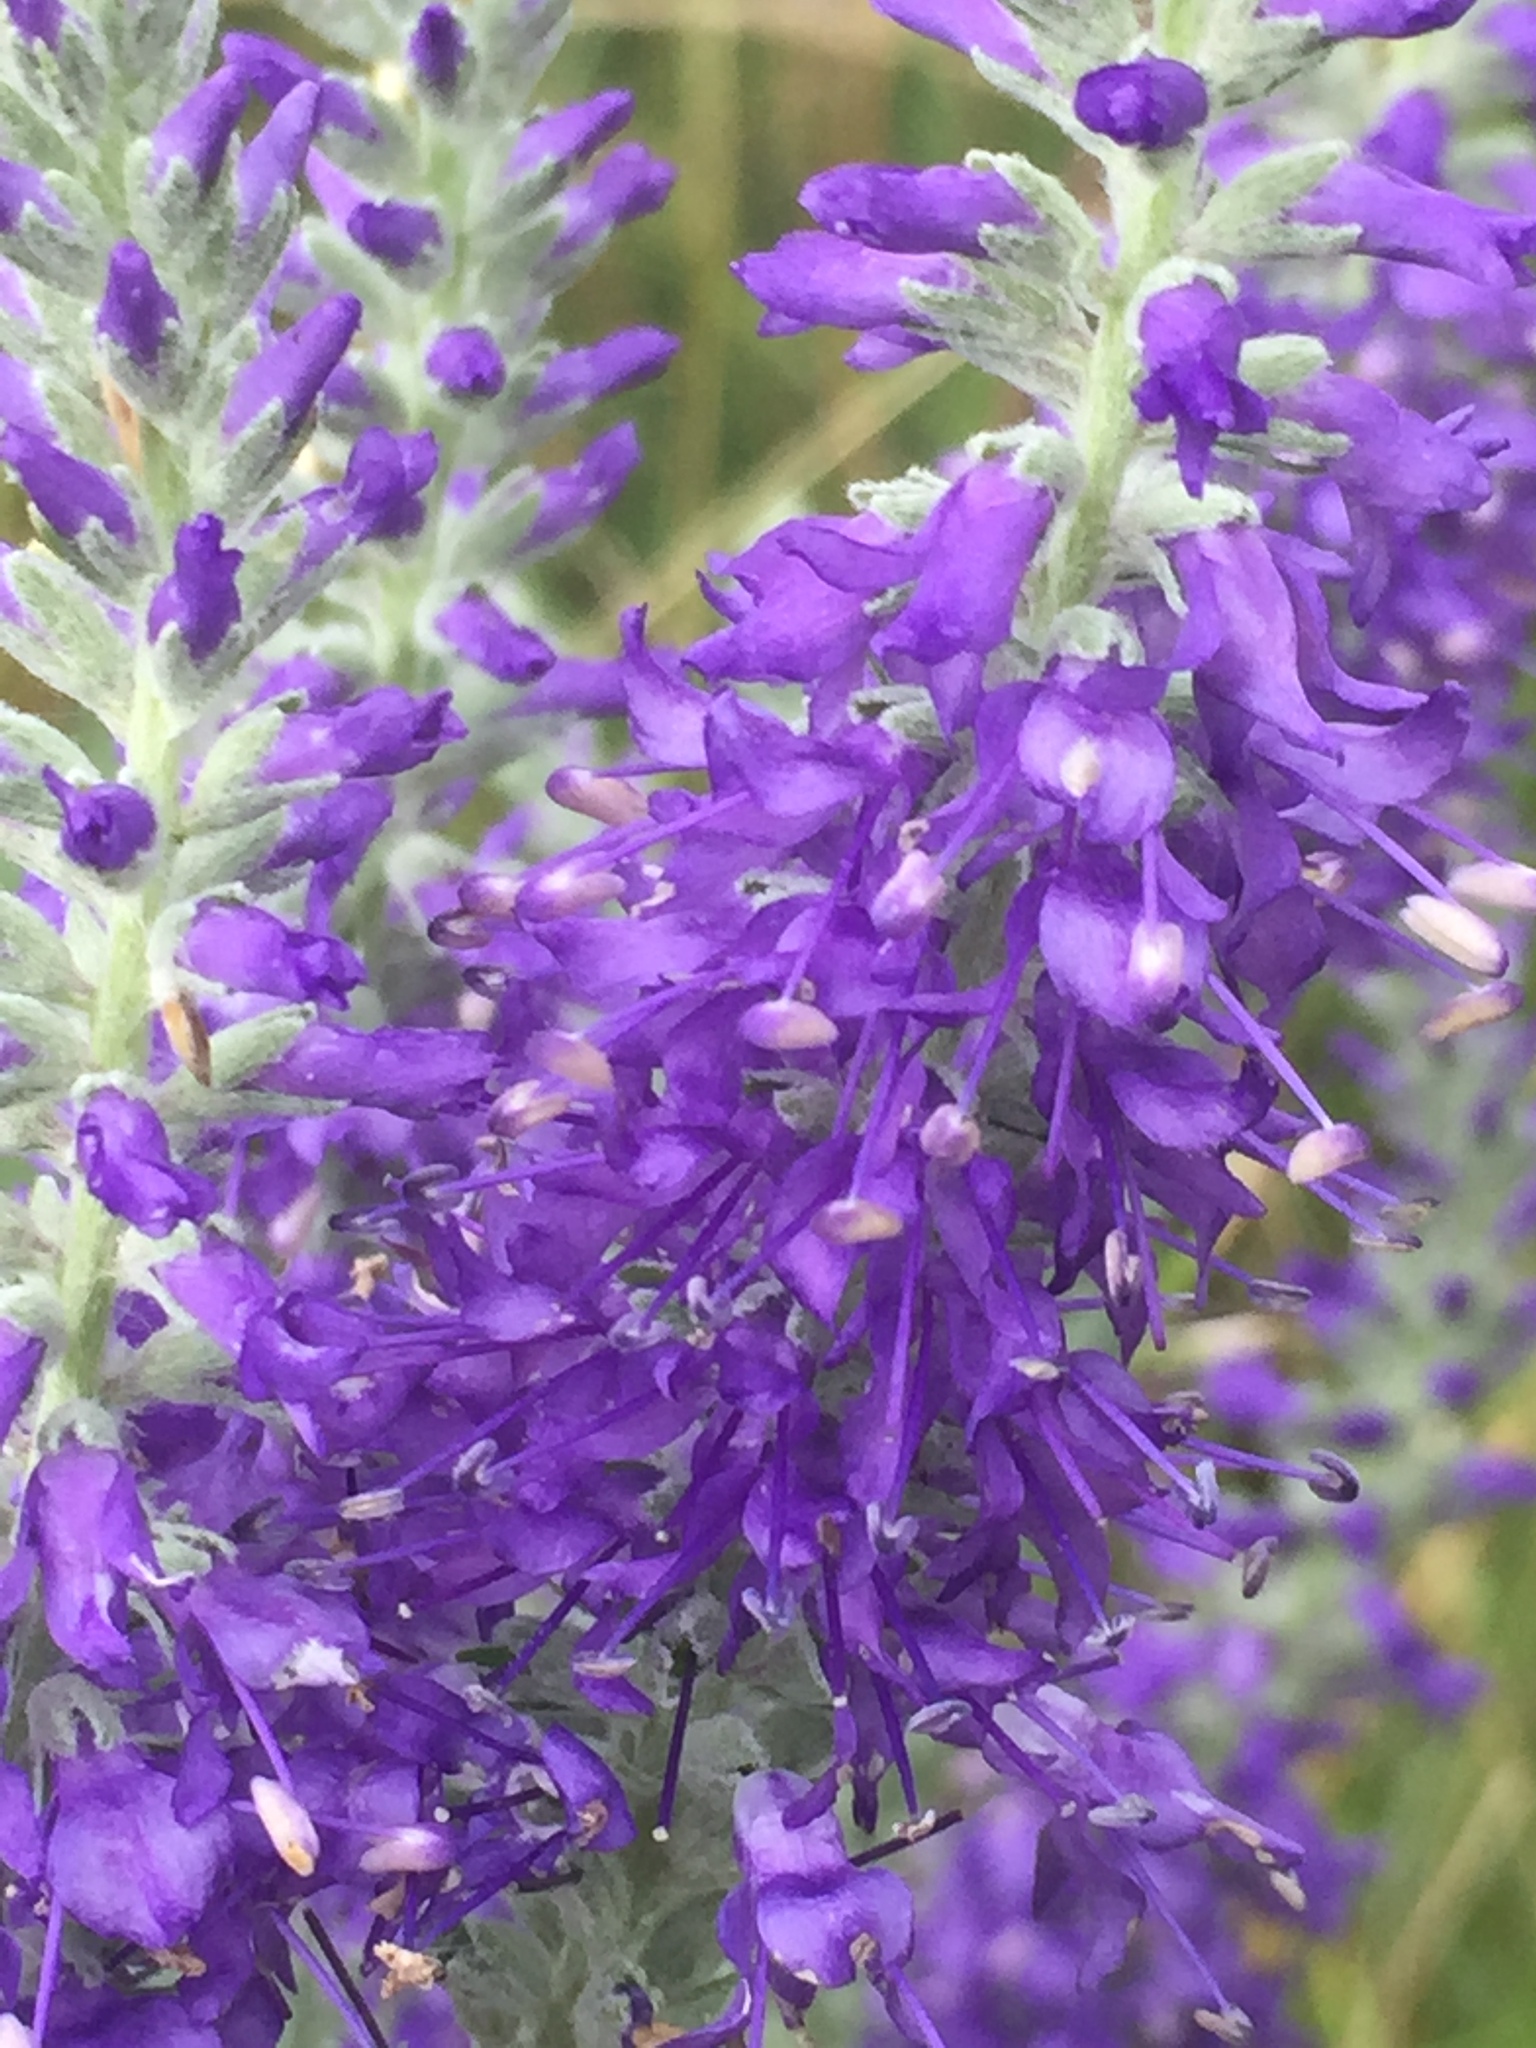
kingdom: Plantae
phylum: Tracheophyta
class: Magnoliopsida
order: Lamiales
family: Plantaginaceae
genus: Veronica
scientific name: Veronica incana
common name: Silver speedwell
